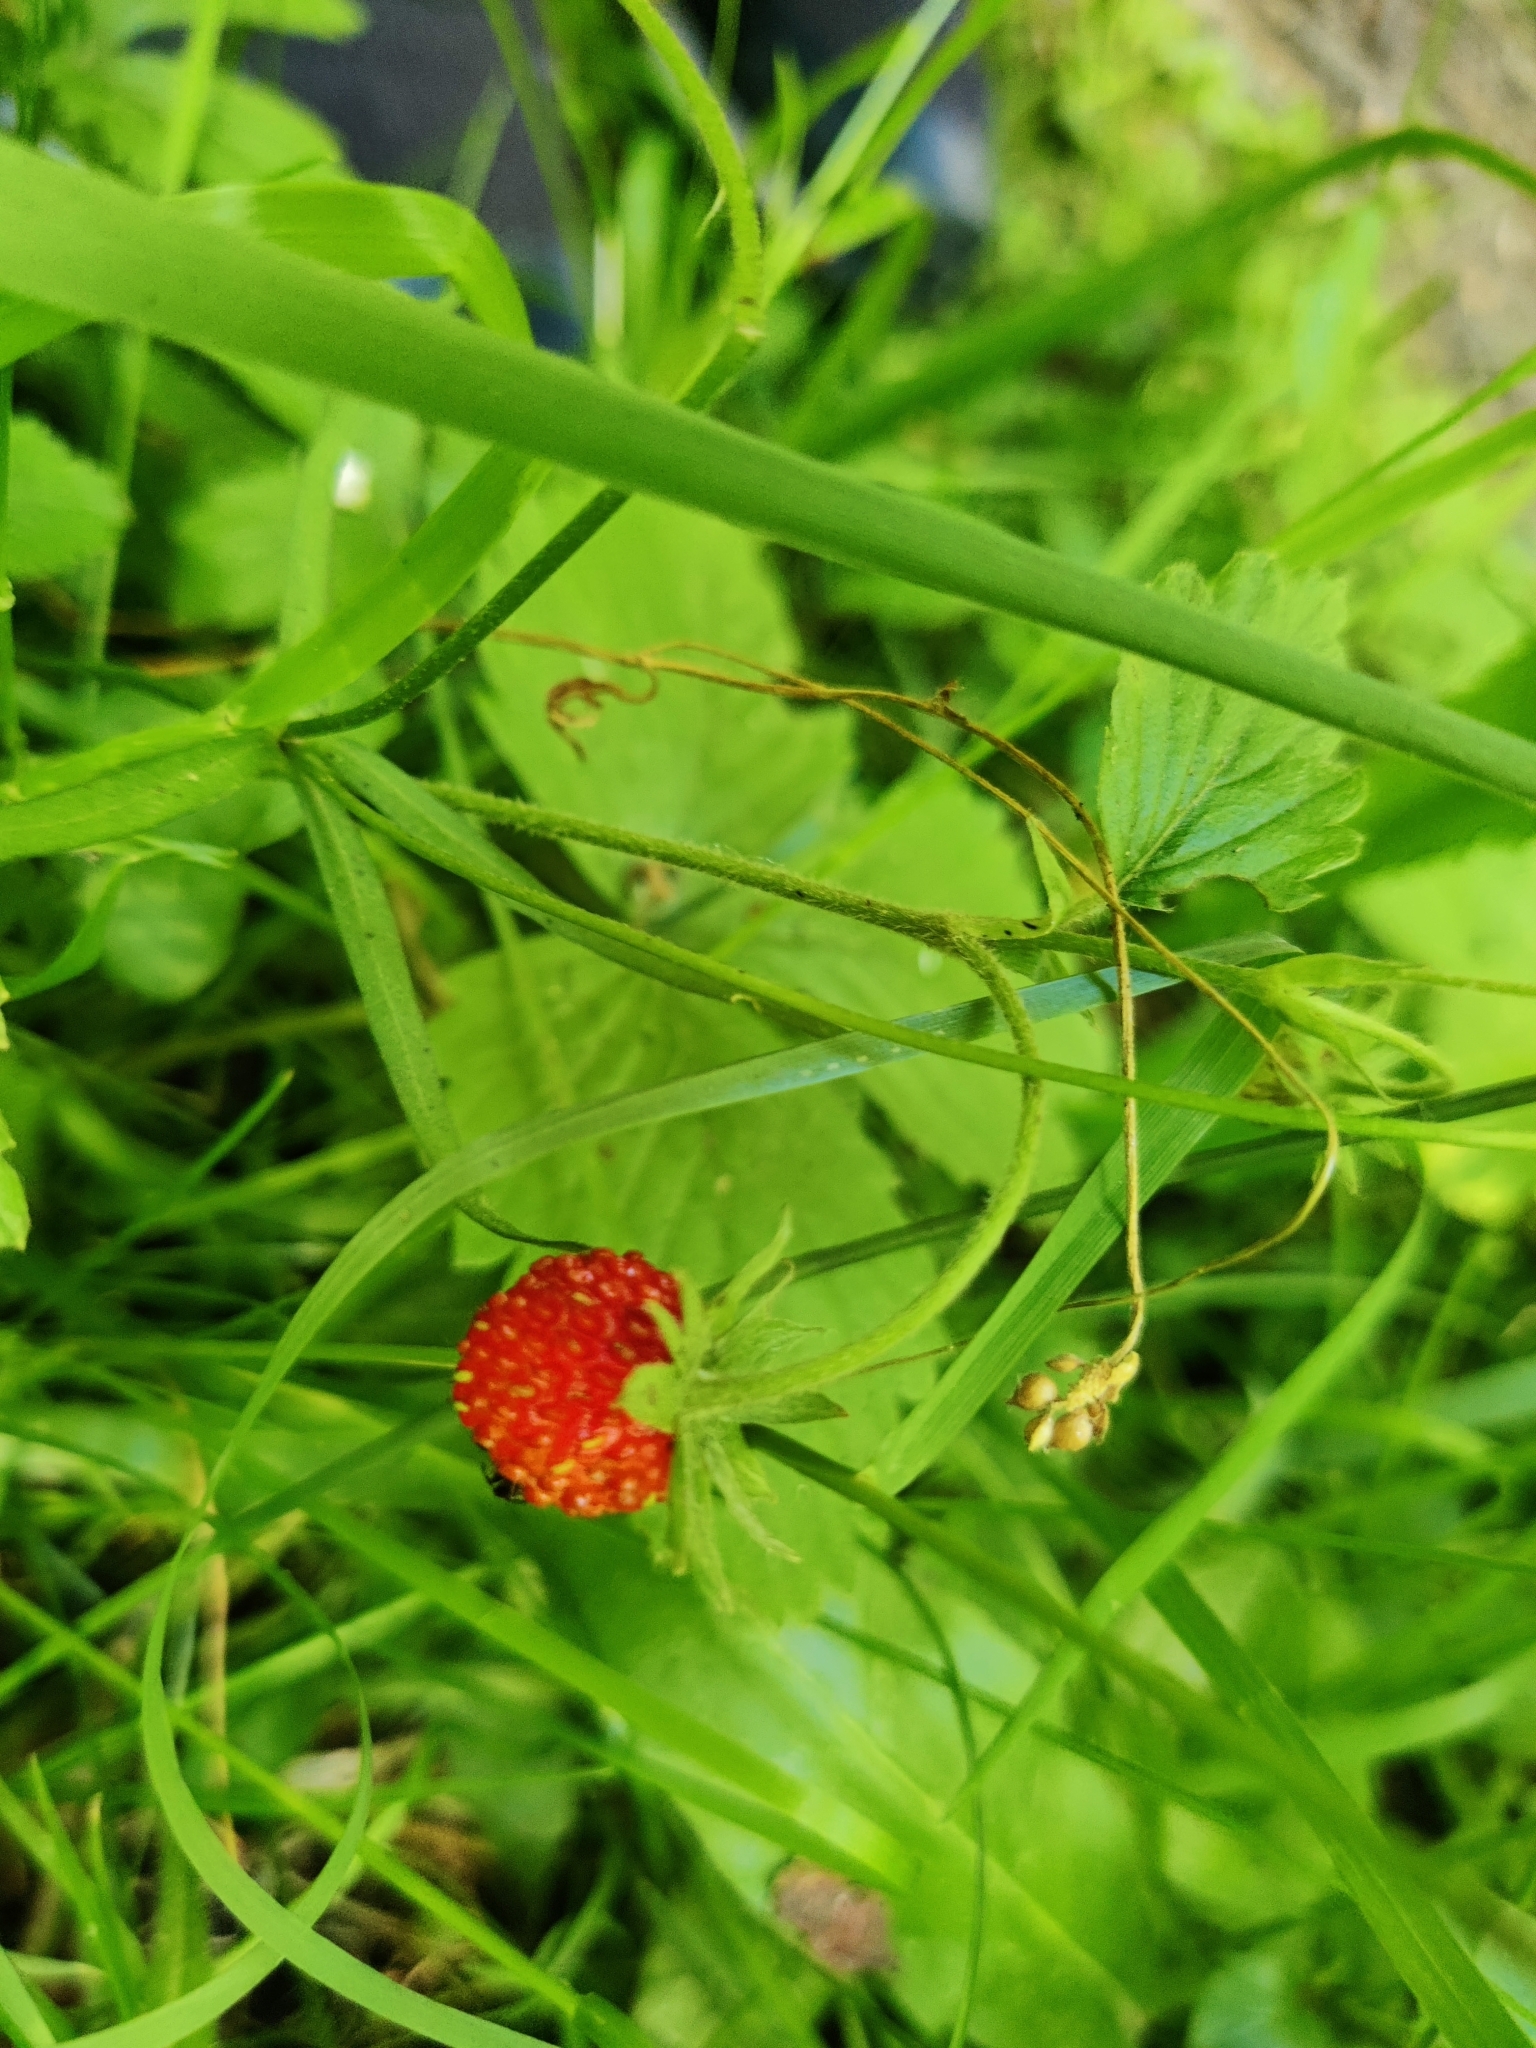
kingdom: Plantae
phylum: Tracheophyta
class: Magnoliopsida
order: Rosales
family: Rosaceae
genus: Fragaria
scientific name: Fragaria vesca
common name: Wild strawberry
